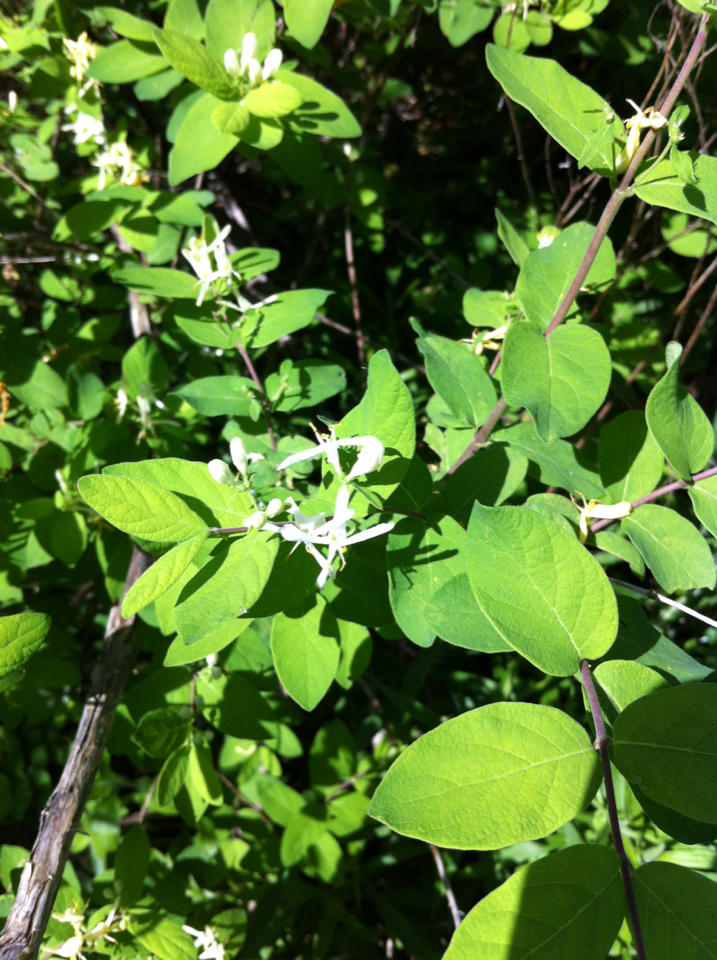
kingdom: Plantae
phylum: Tracheophyta
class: Magnoliopsida
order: Dipsacales
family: Caprifoliaceae
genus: Lonicera
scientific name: Lonicera morrowii
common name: Morrow's honeysuckle
